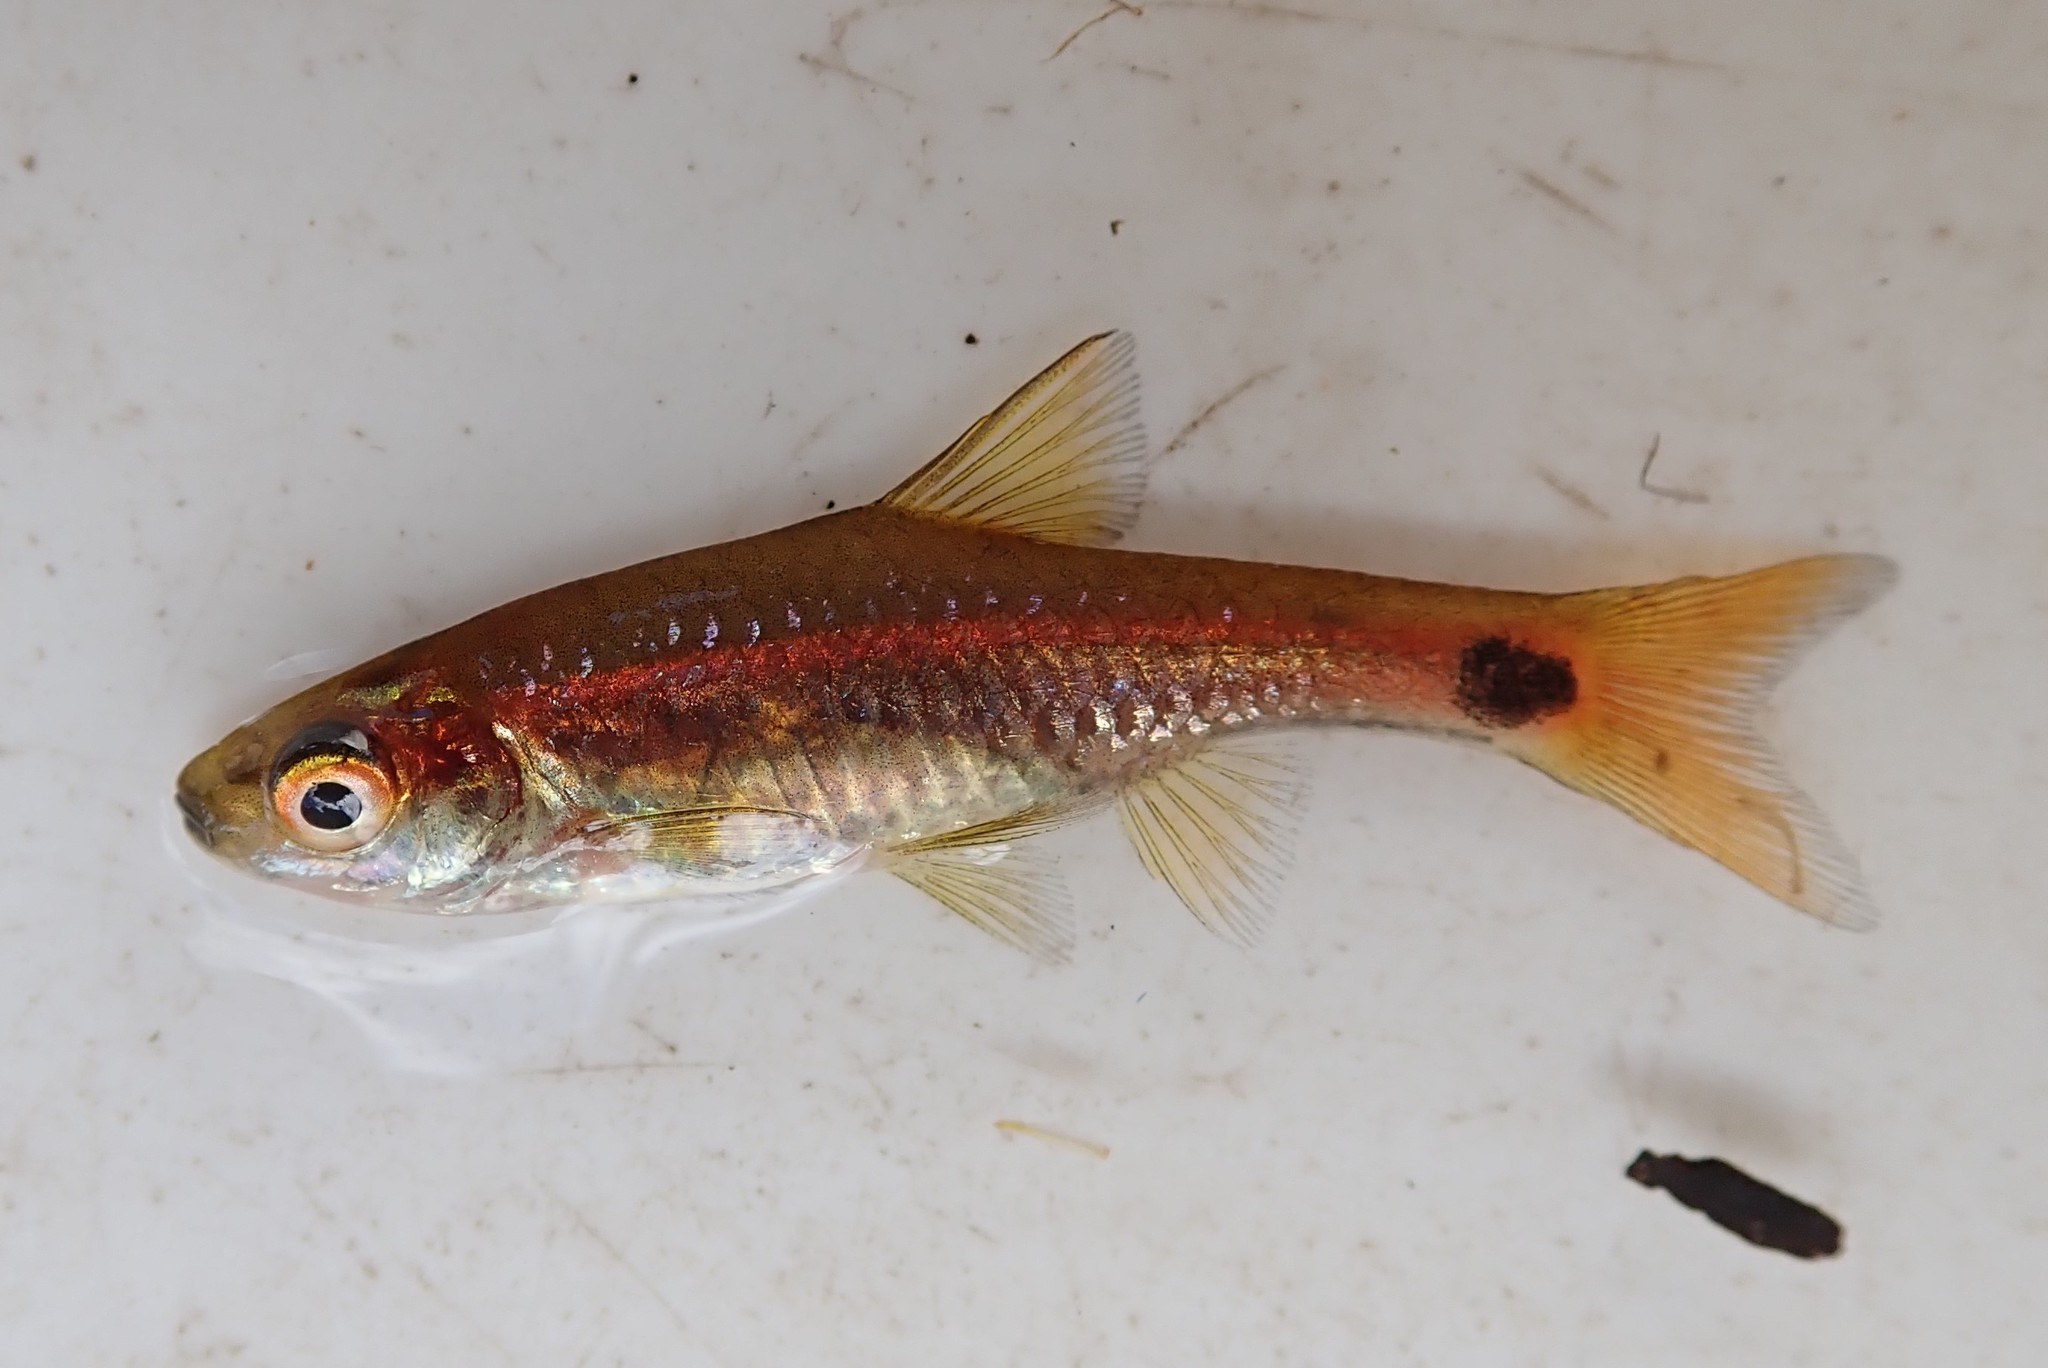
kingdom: Animalia
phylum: Chordata
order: Cypriniformes
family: Cyprinidae
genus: Enteromius
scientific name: Enteromius afrovernayi
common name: Spottail barb
